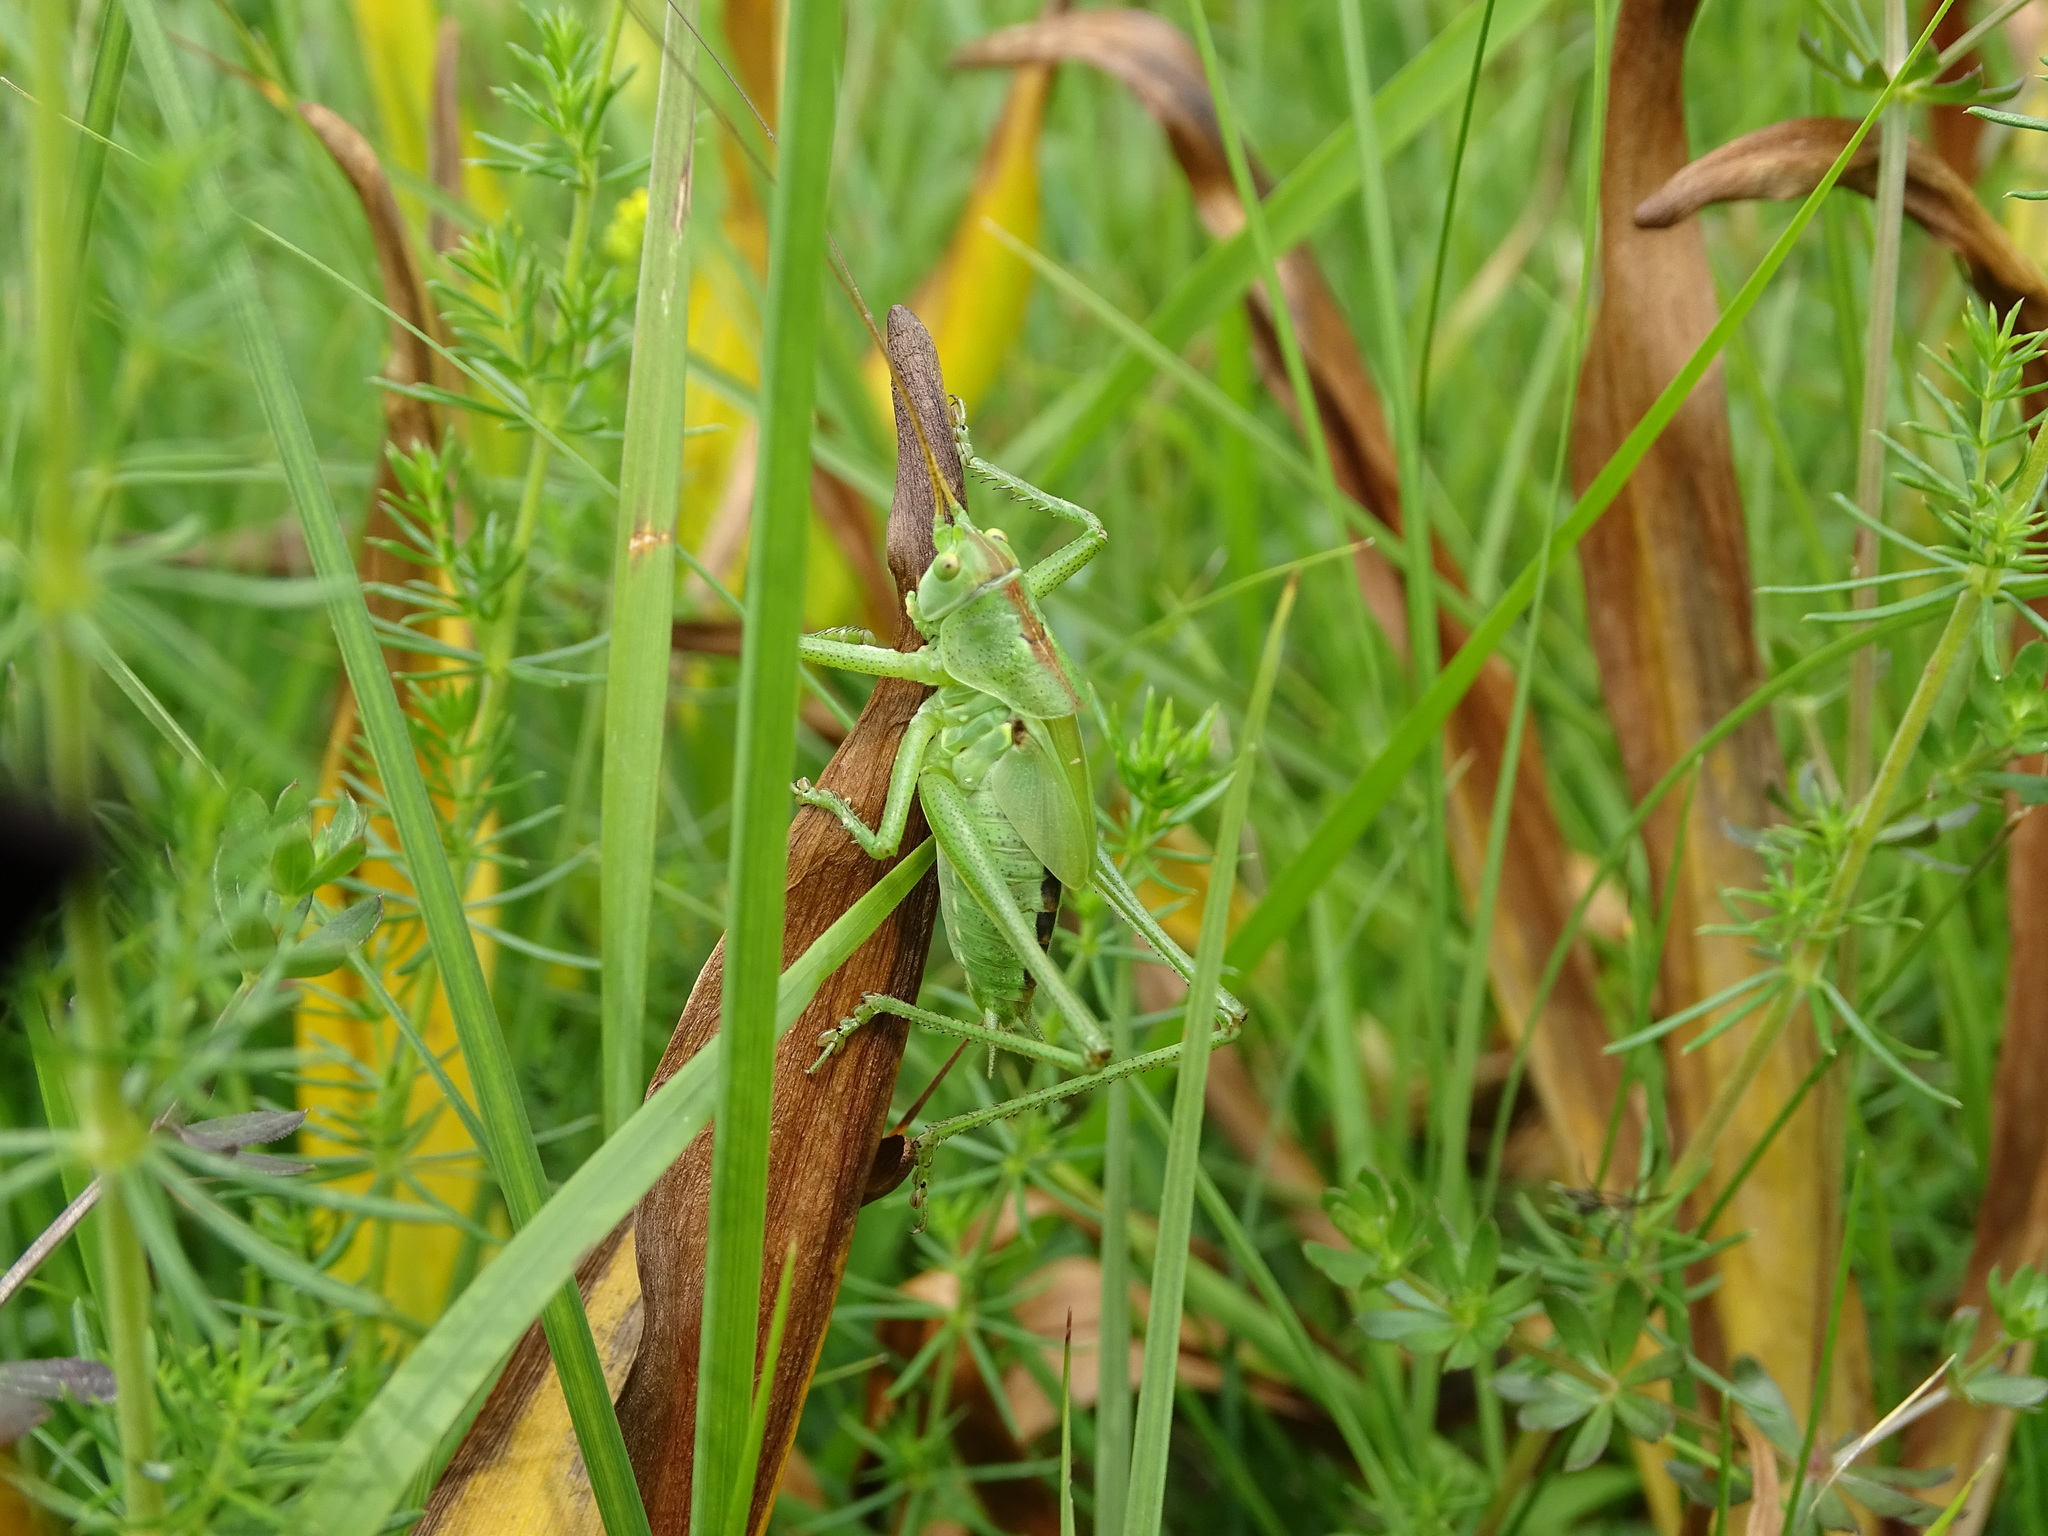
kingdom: Animalia
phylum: Arthropoda
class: Insecta
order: Orthoptera
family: Tettigoniidae
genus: Tettigonia
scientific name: Tettigonia viridissima
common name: Great green bush-cricket
